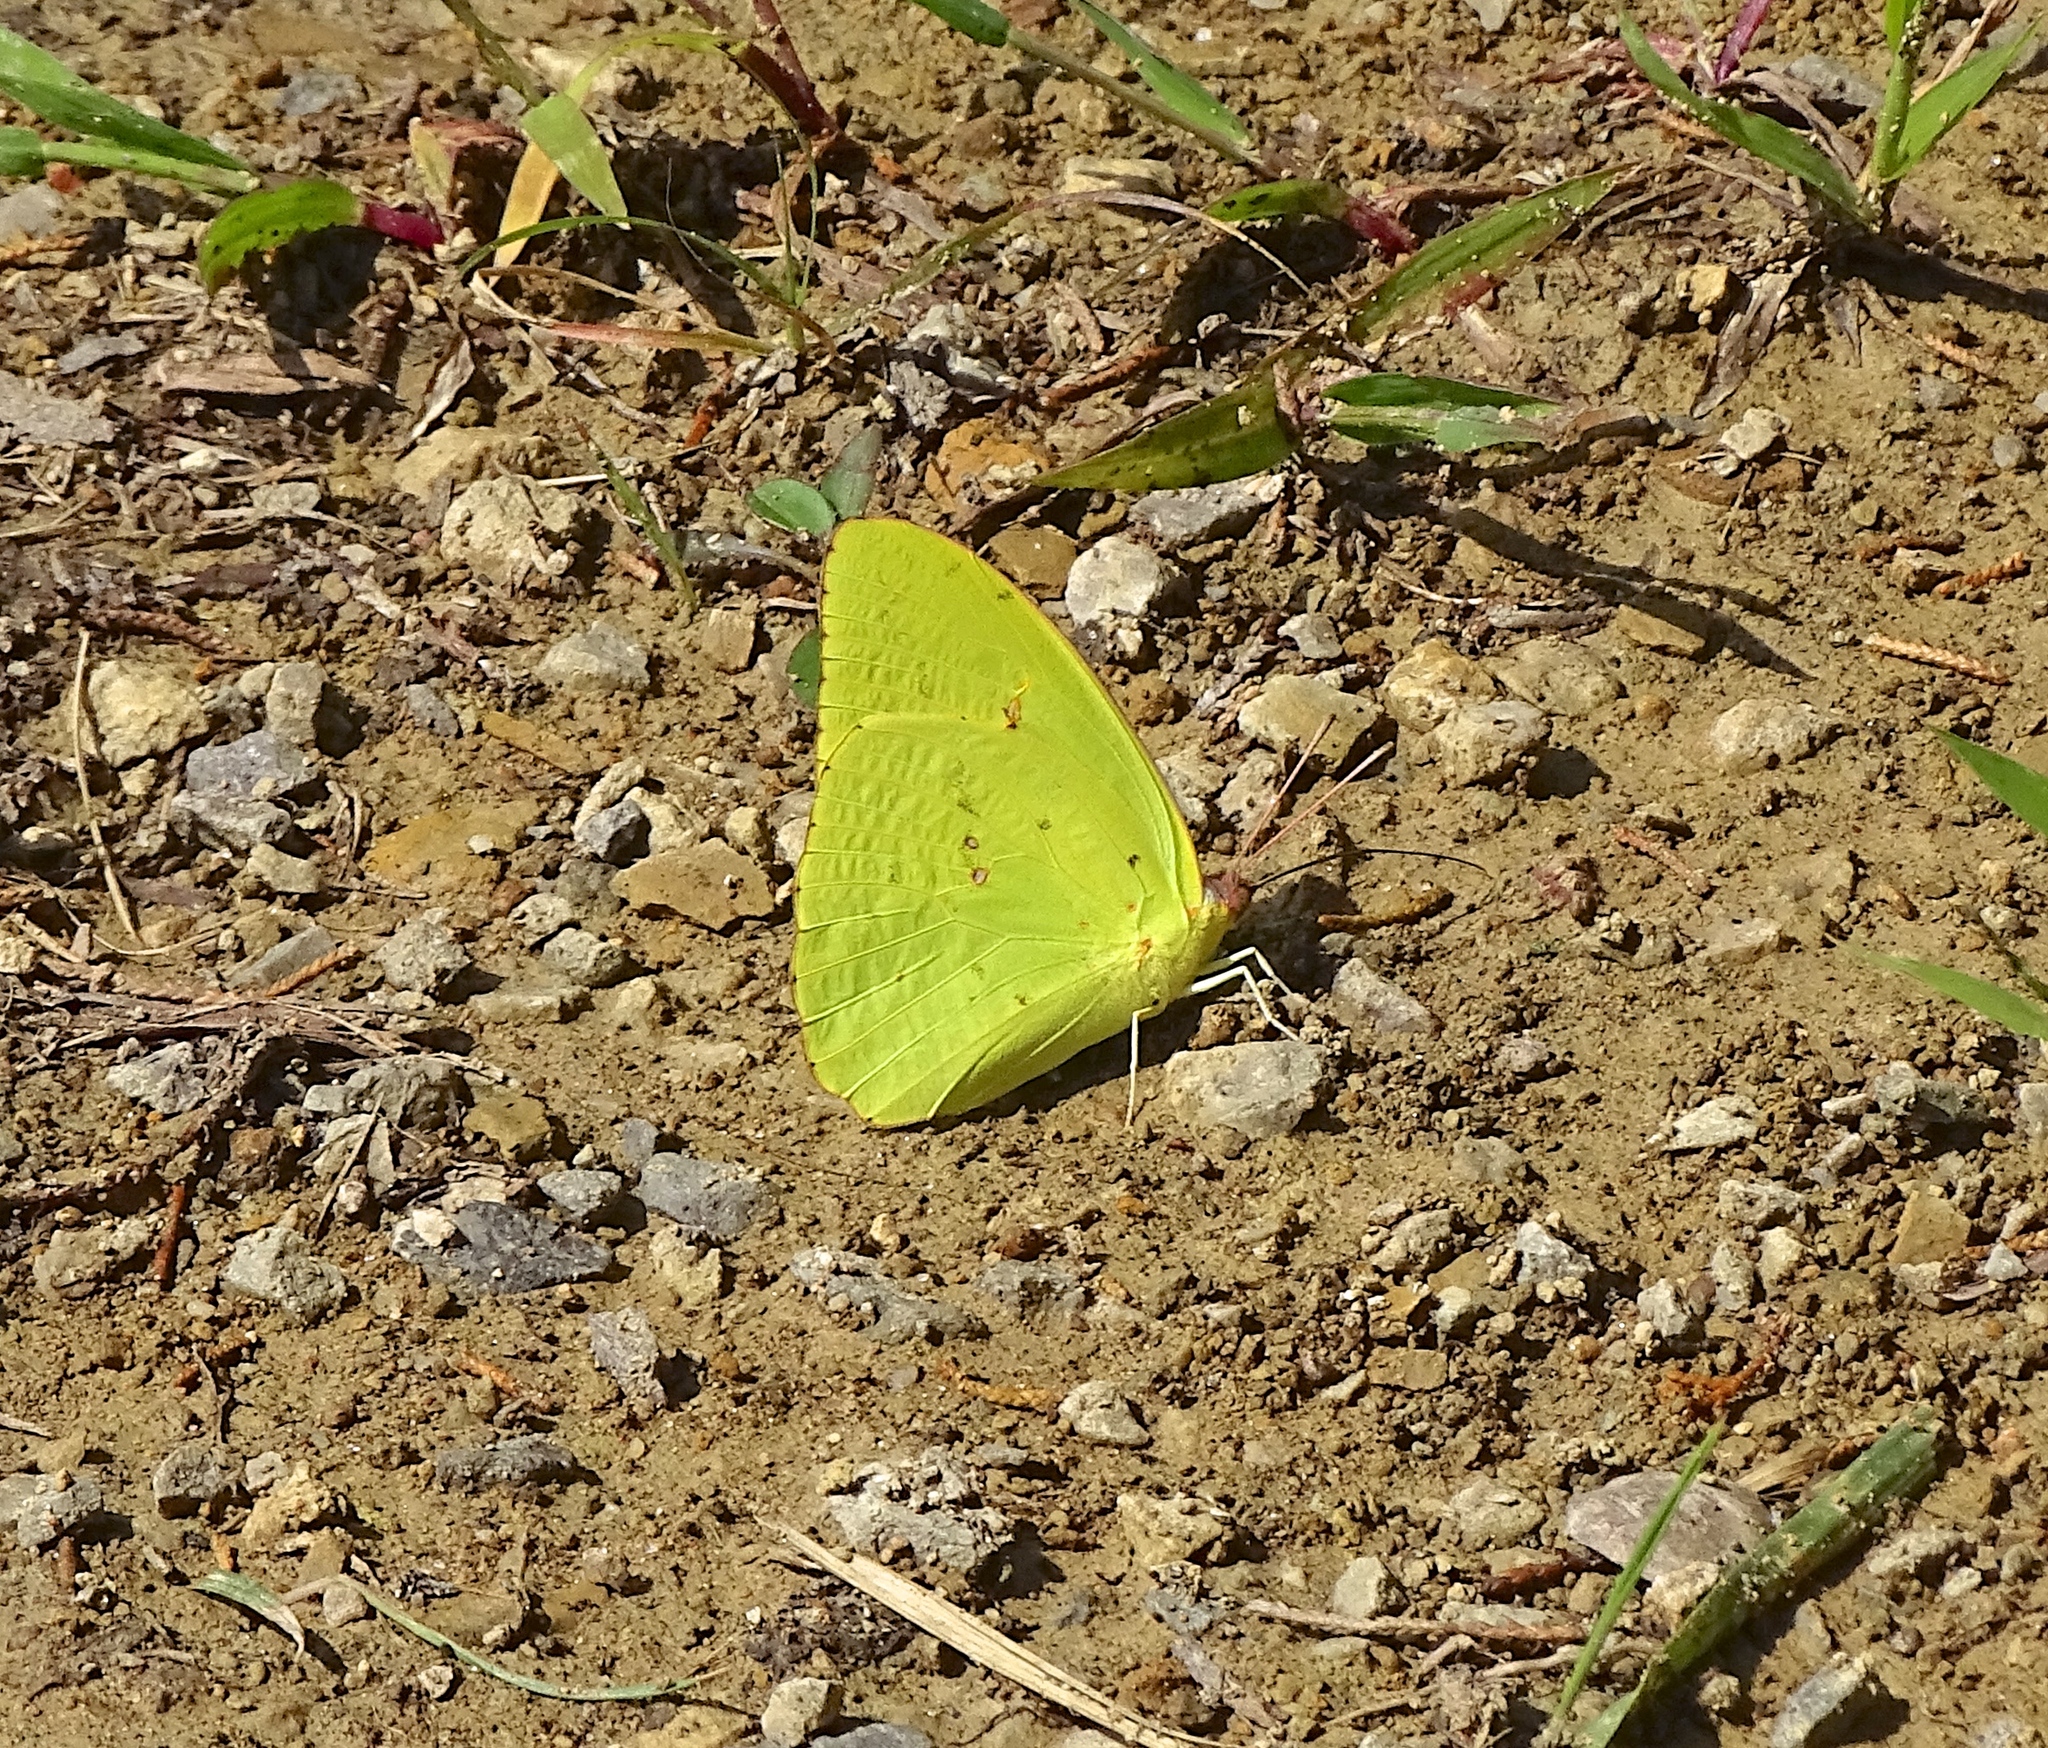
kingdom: Animalia
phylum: Arthropoda
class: Insecta
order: Lepidoptera
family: Pieridae
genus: Phoebis
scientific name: Phoebis sennae
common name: Cloudless sulphur
